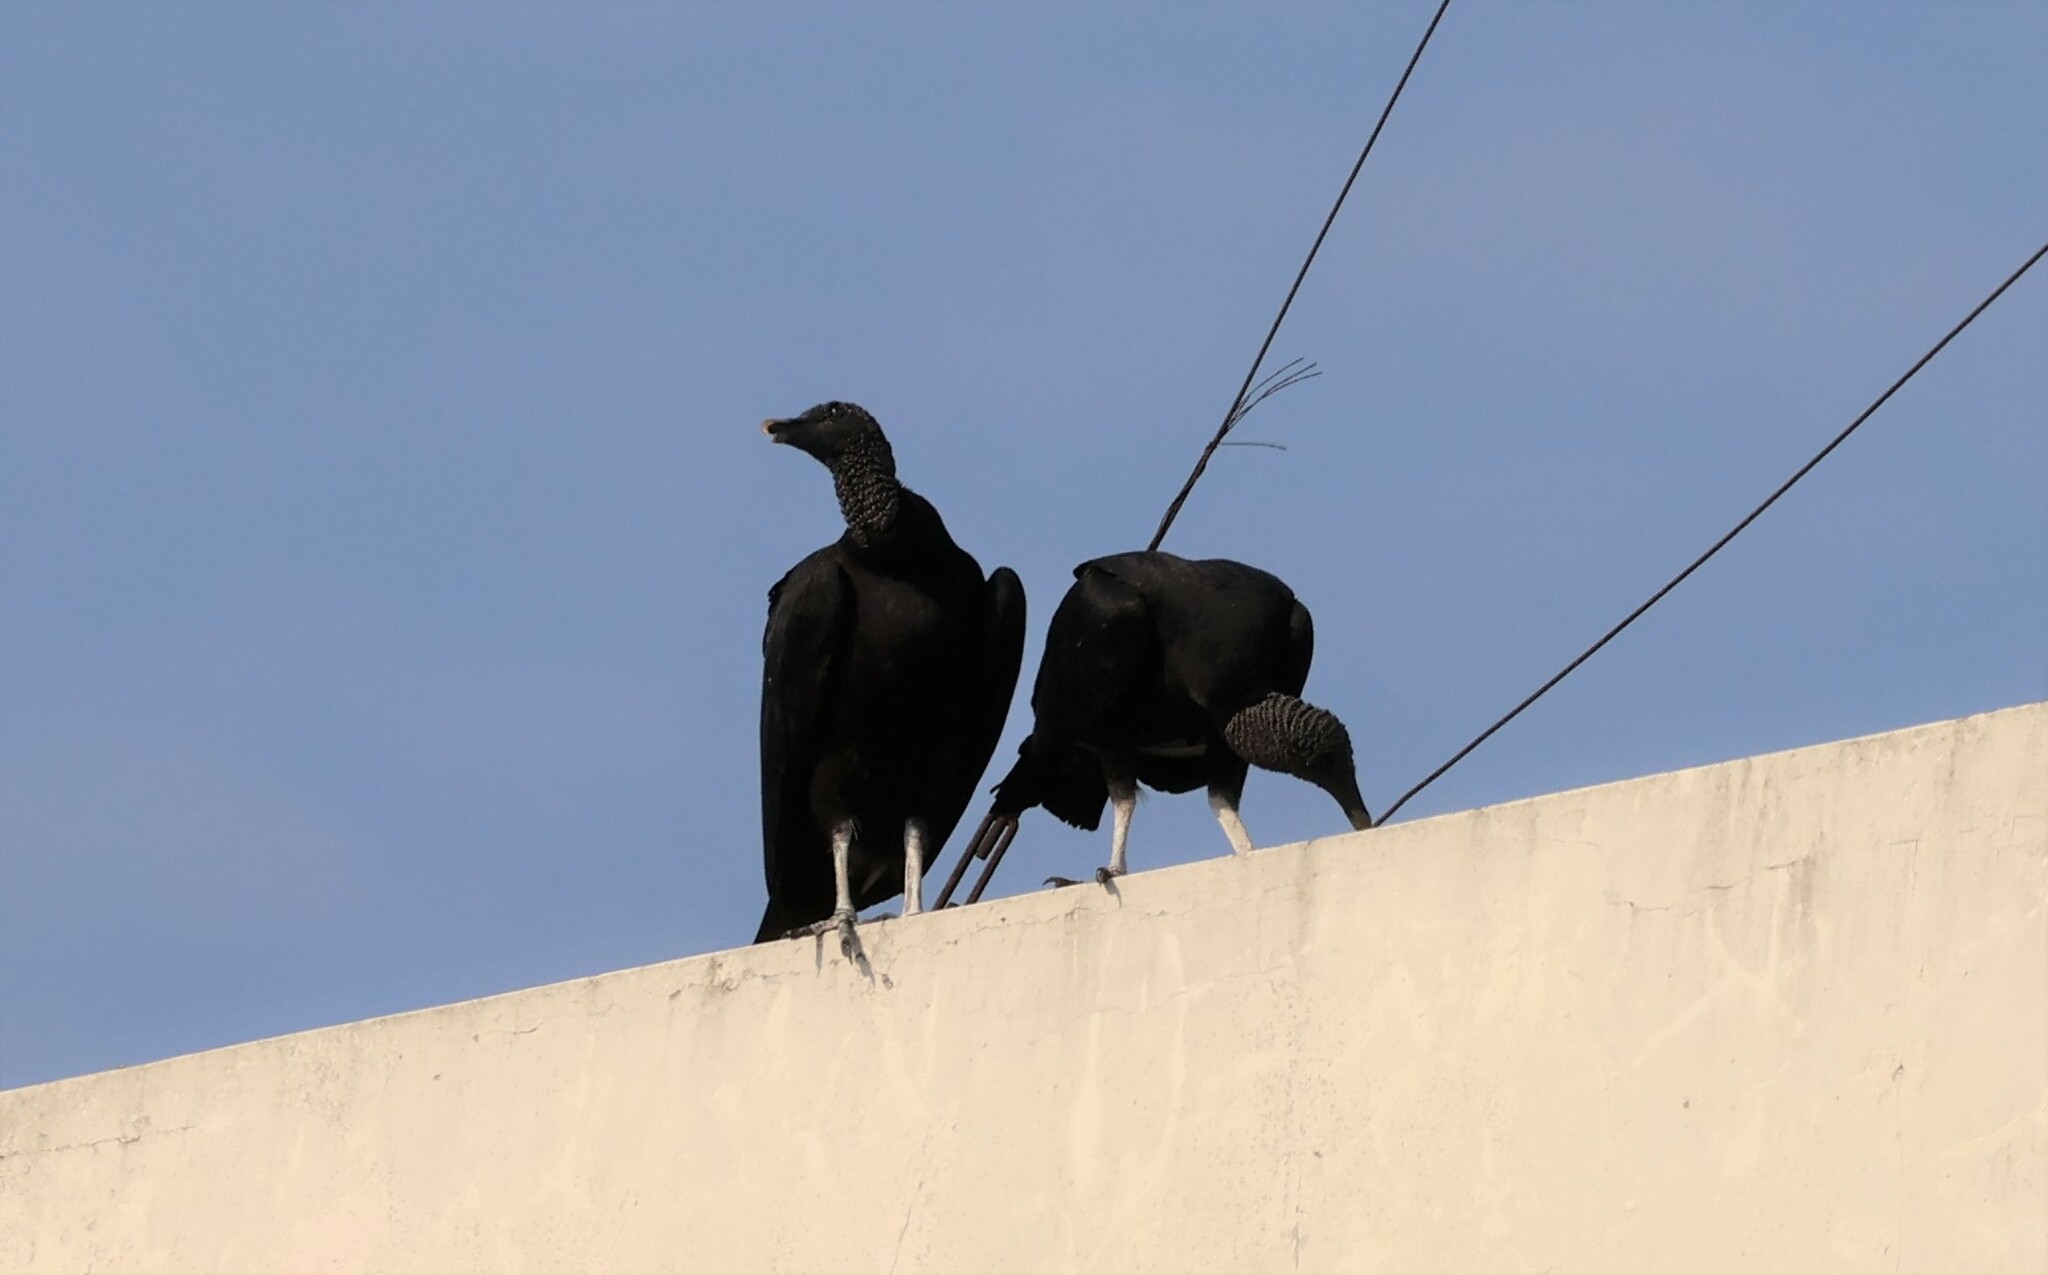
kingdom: Animalia
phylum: Chordata
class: Aves
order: Accipitriformes
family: Cathartidae
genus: Coragyps
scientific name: Coragyps atratus
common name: Black vulture
